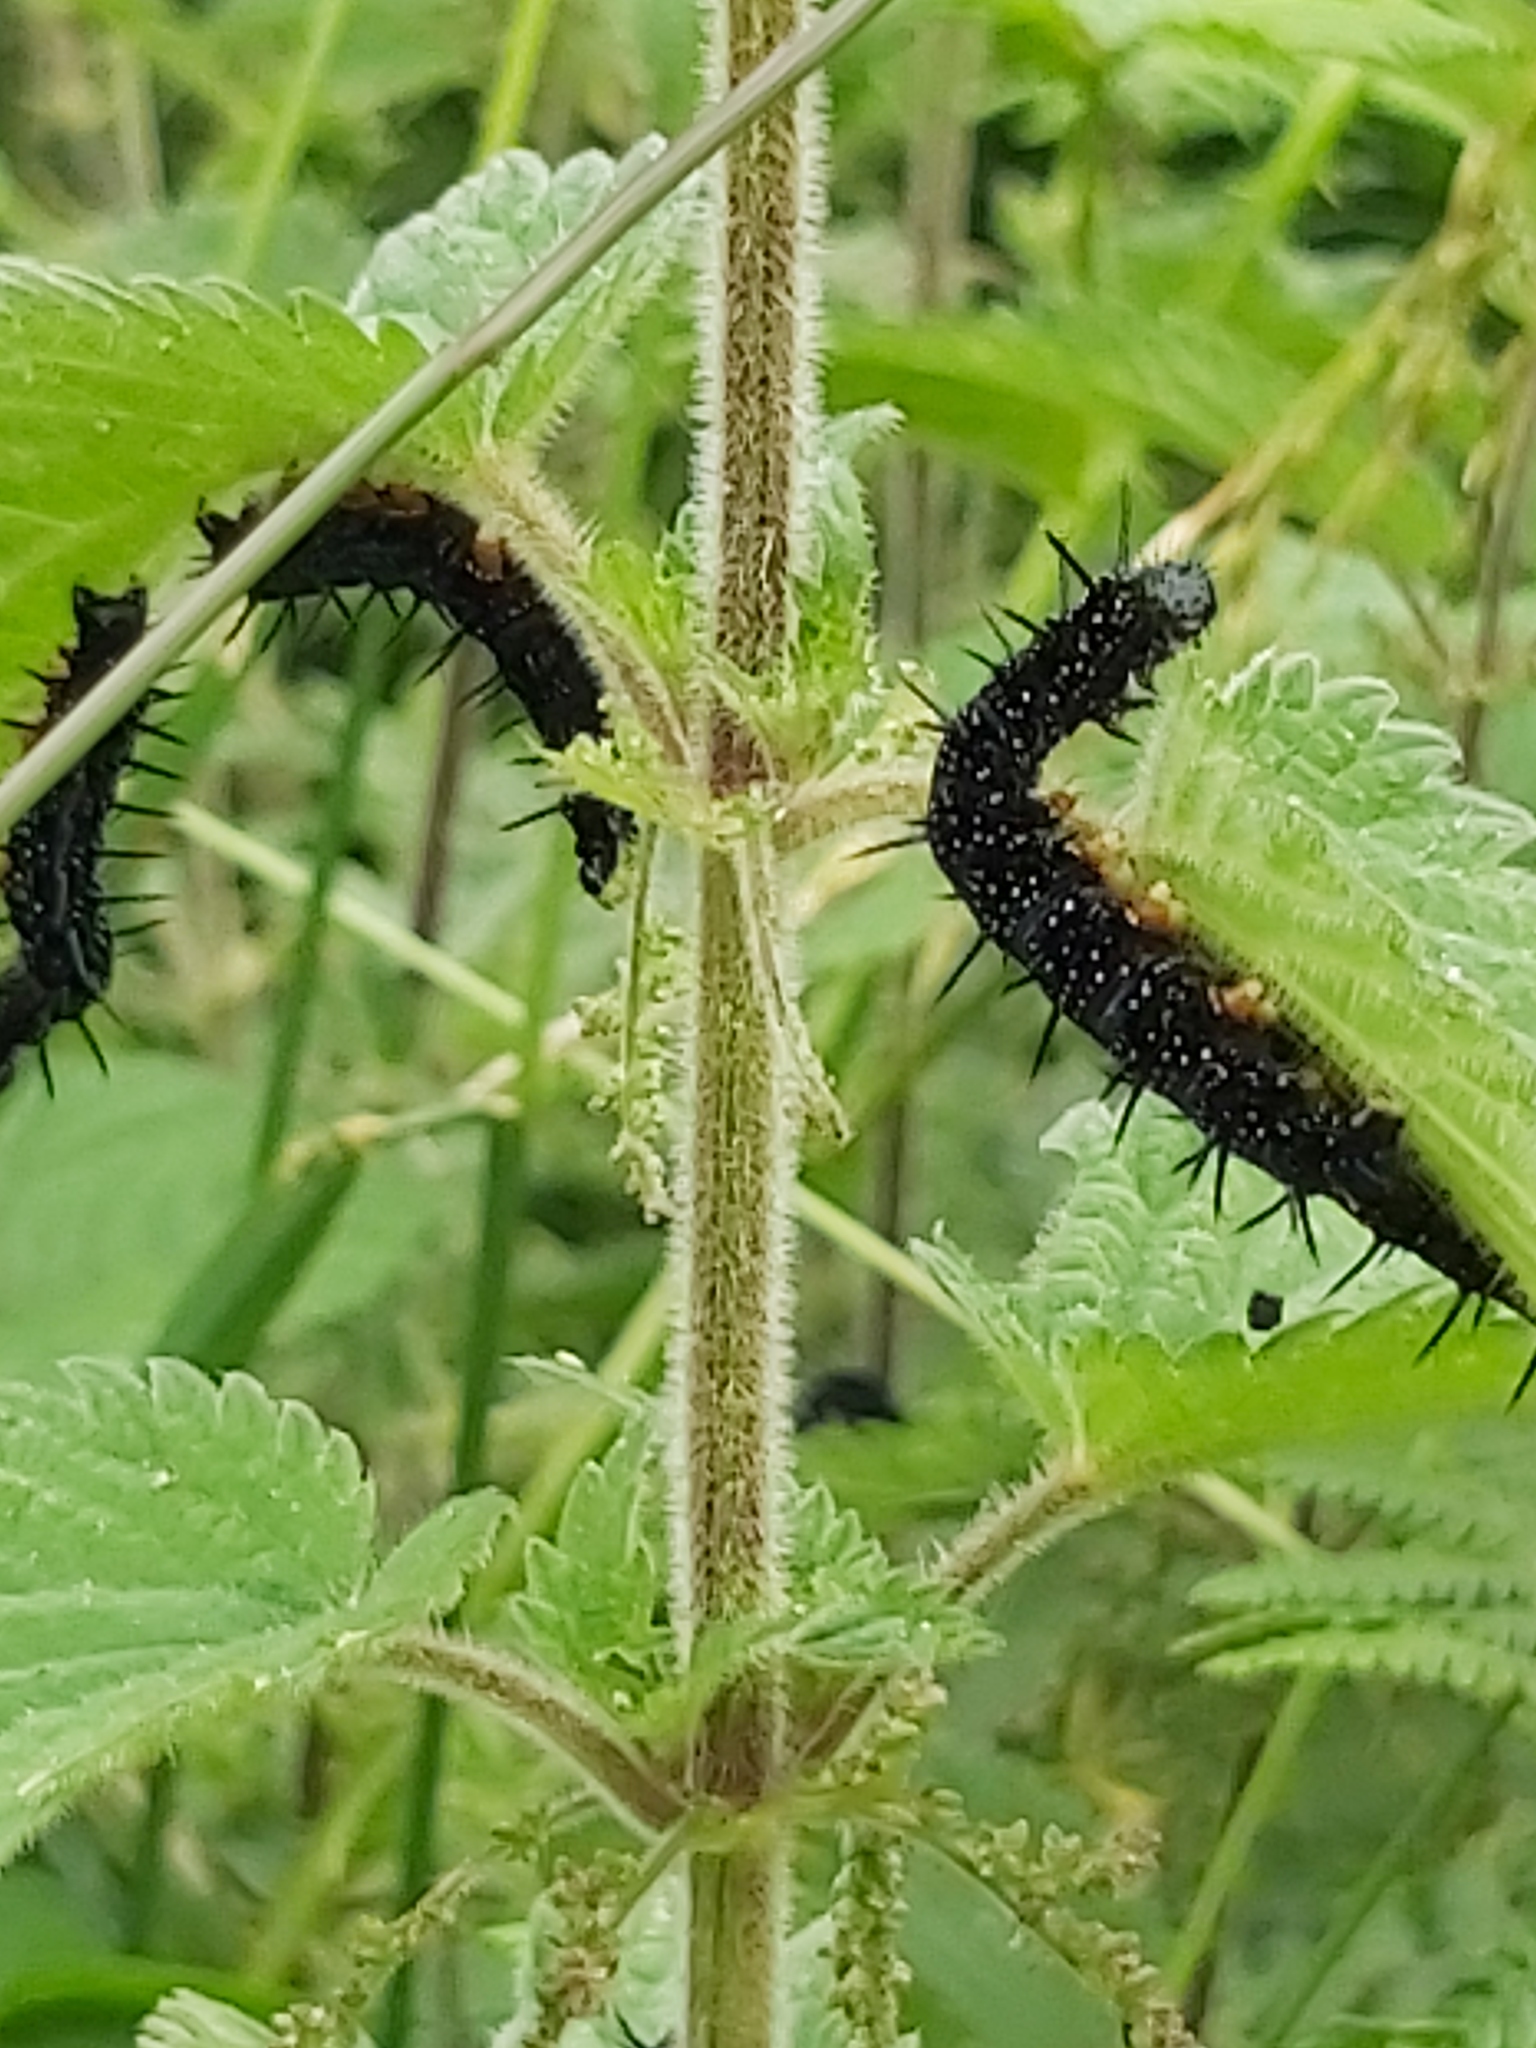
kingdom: Animalia
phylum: Arthropoda
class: Insecta
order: Lepidoptera
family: Nymphalidae
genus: Aglais
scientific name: Aglais io
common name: Peacock
